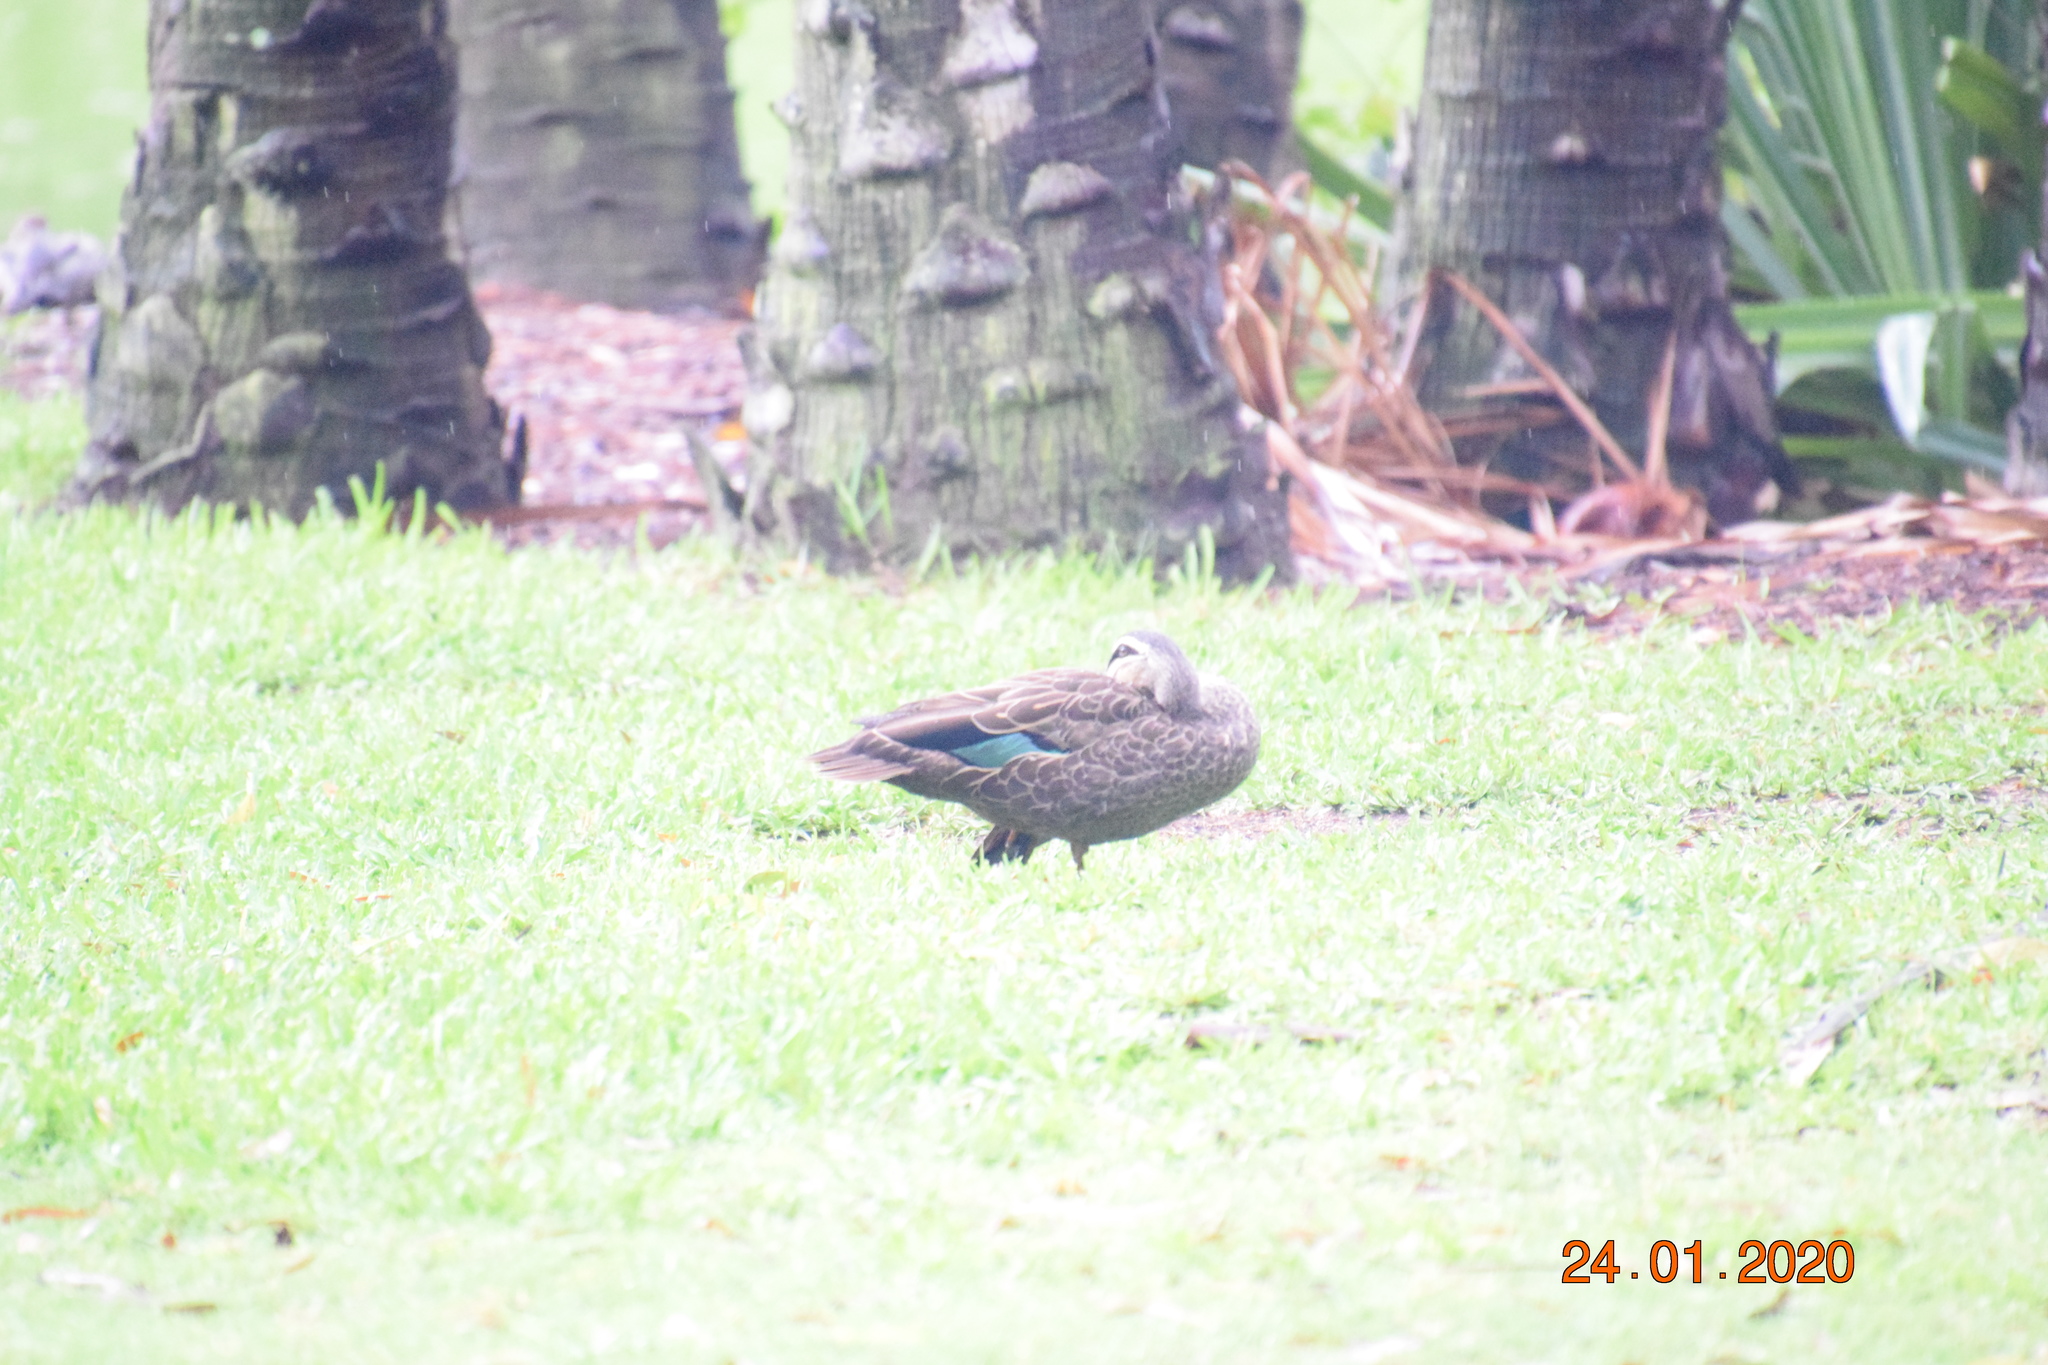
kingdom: Animalia
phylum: Chordata
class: Aves
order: Anseriformes
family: Anatidae
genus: Anas
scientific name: Anas superciliosa
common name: Pacific black duck
